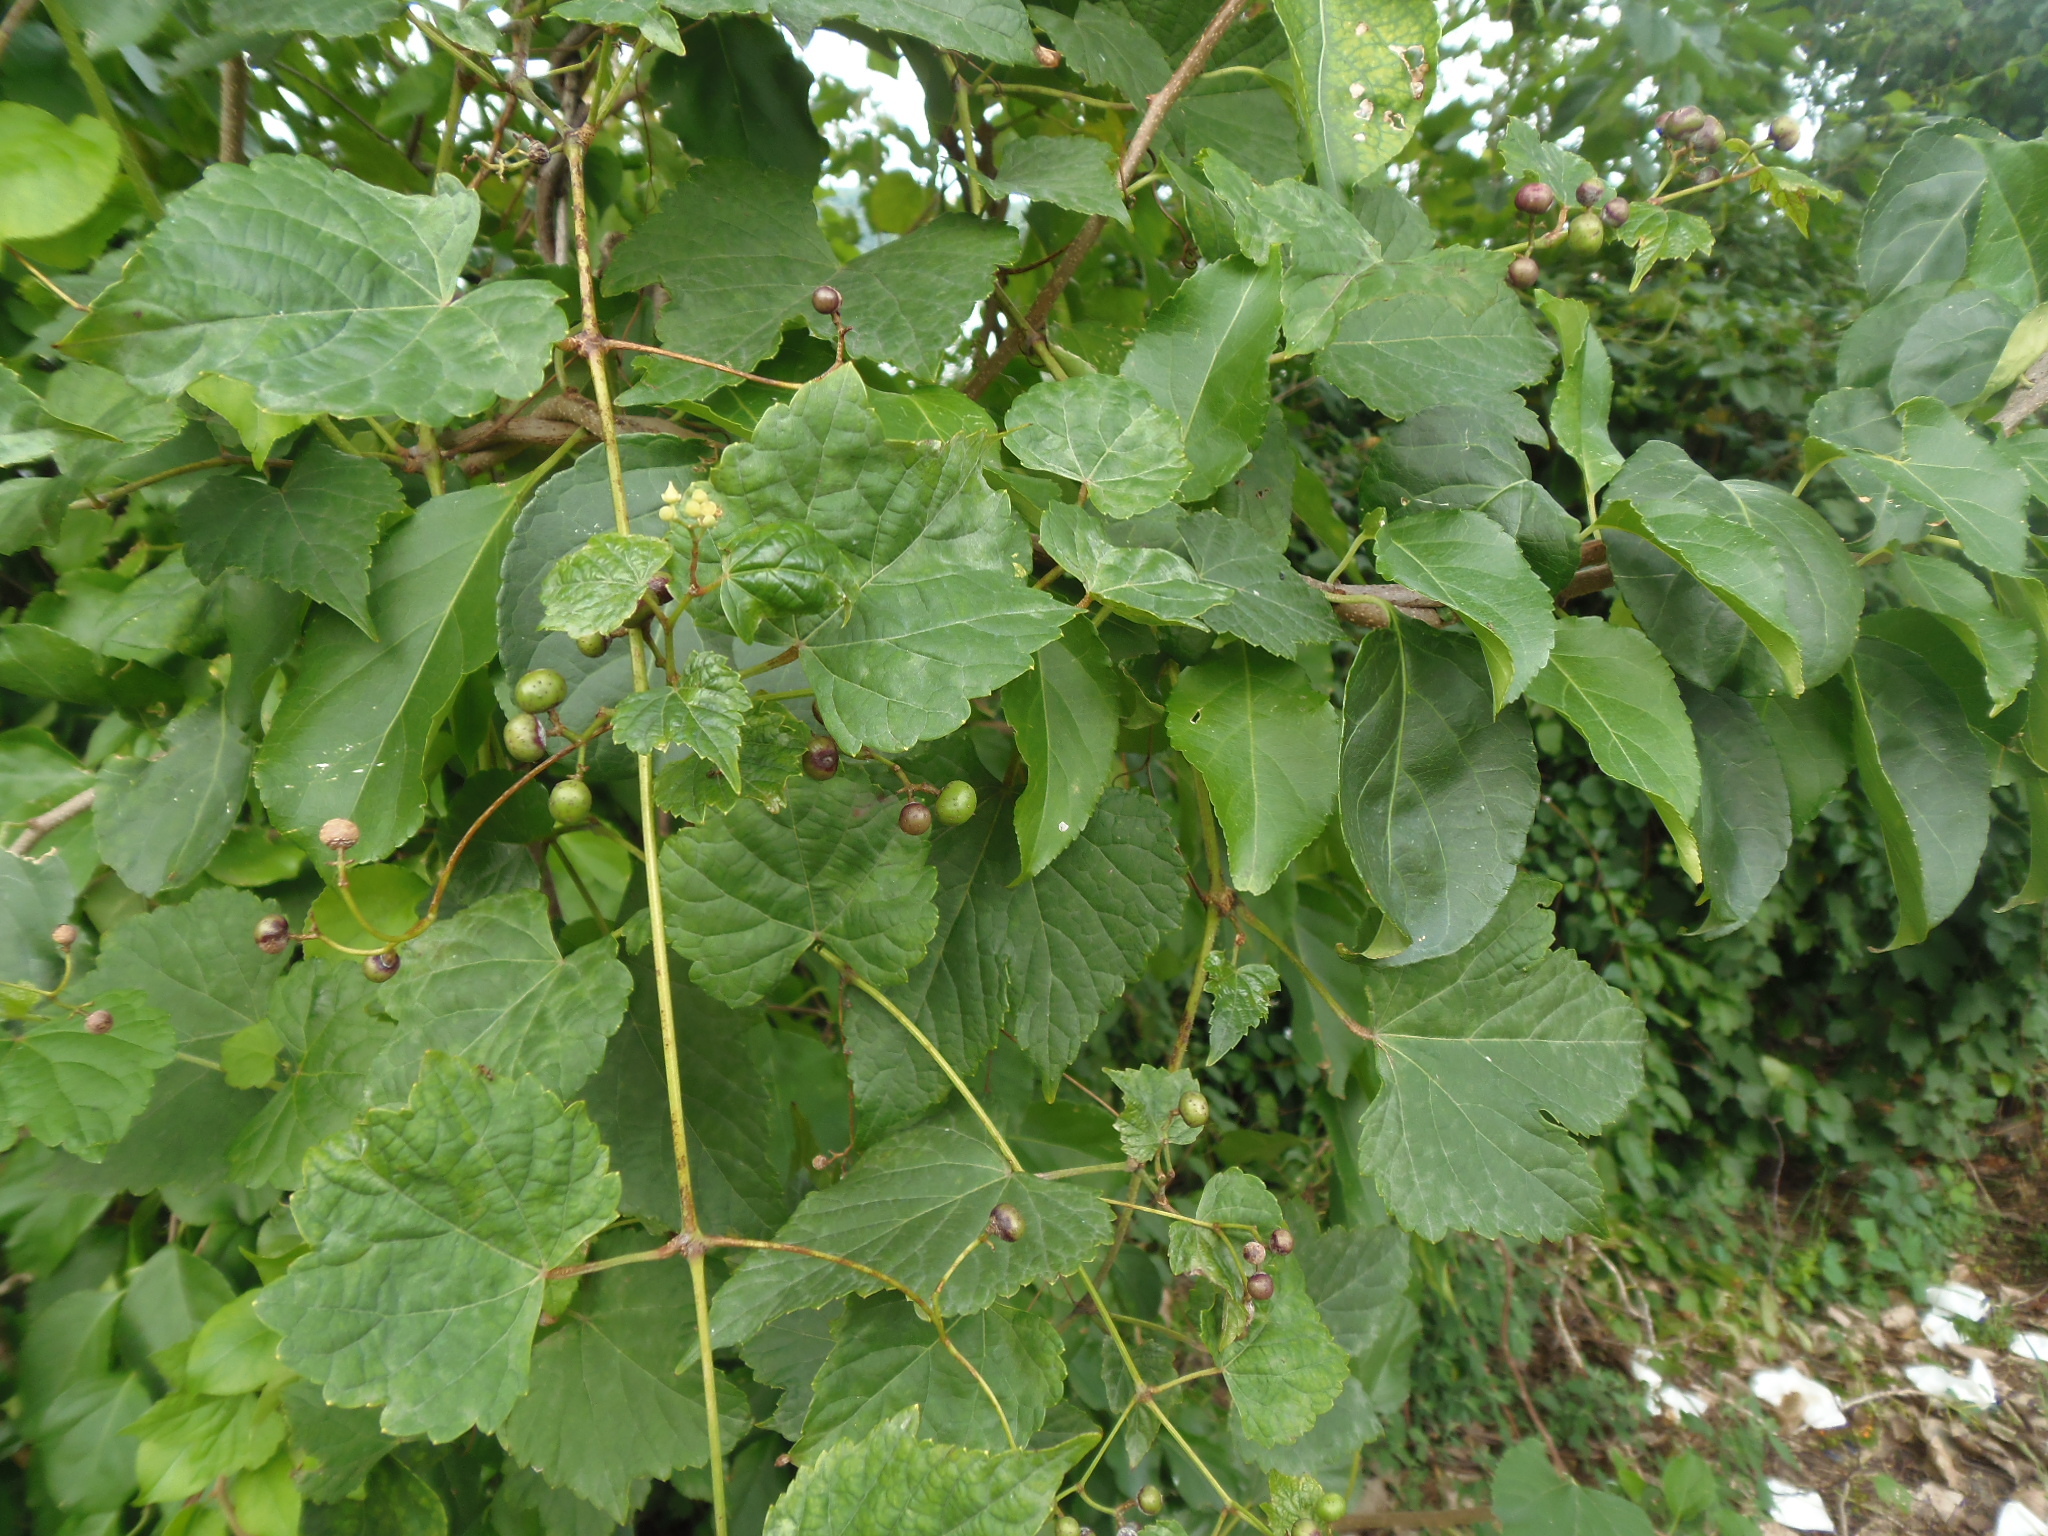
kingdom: Plantae
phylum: Tracheophyta
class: Magnoliopsida
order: Vitales
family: Vitaceae
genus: Ampelopsis
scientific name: Ampelopsis glandulosa
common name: Amur peppervine
